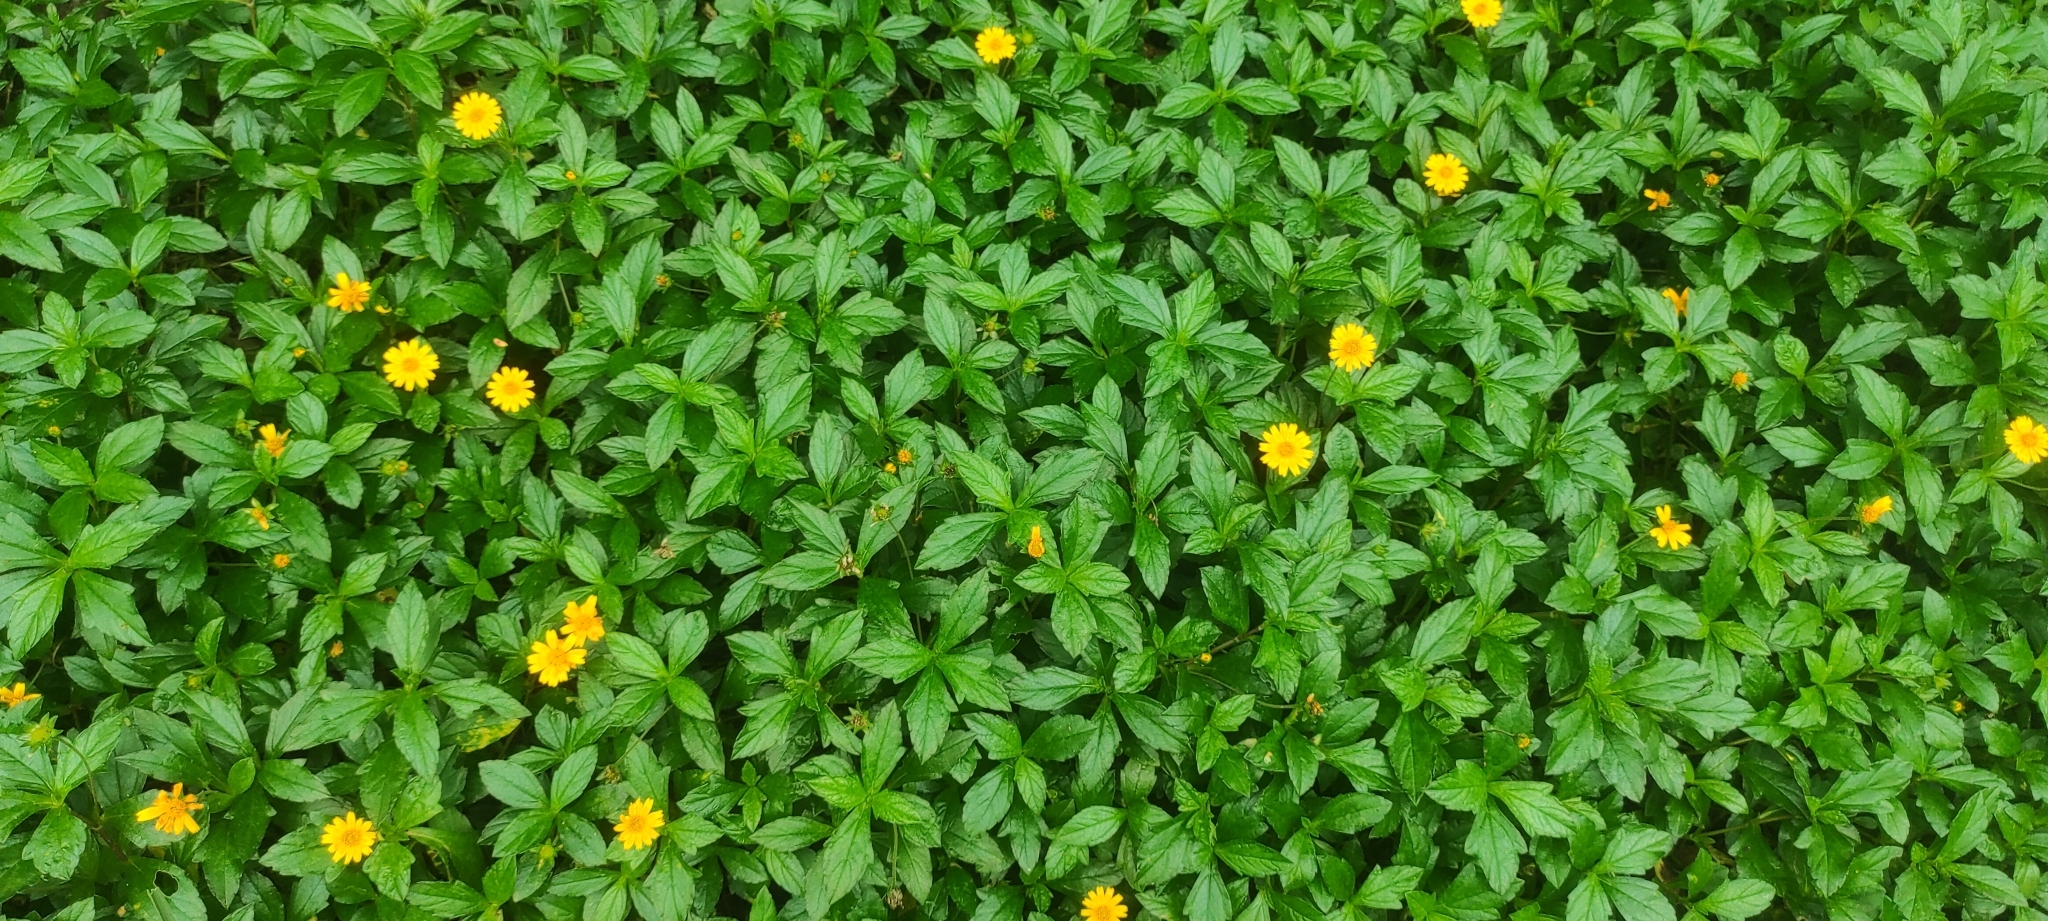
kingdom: Plantae
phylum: Tracheophyta
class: Magnoliopsida
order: Asterales
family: Asteraceae
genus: Sphagneticola
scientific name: Sphagneticola trilobata
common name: Bay biscayne creeping-oxeye
